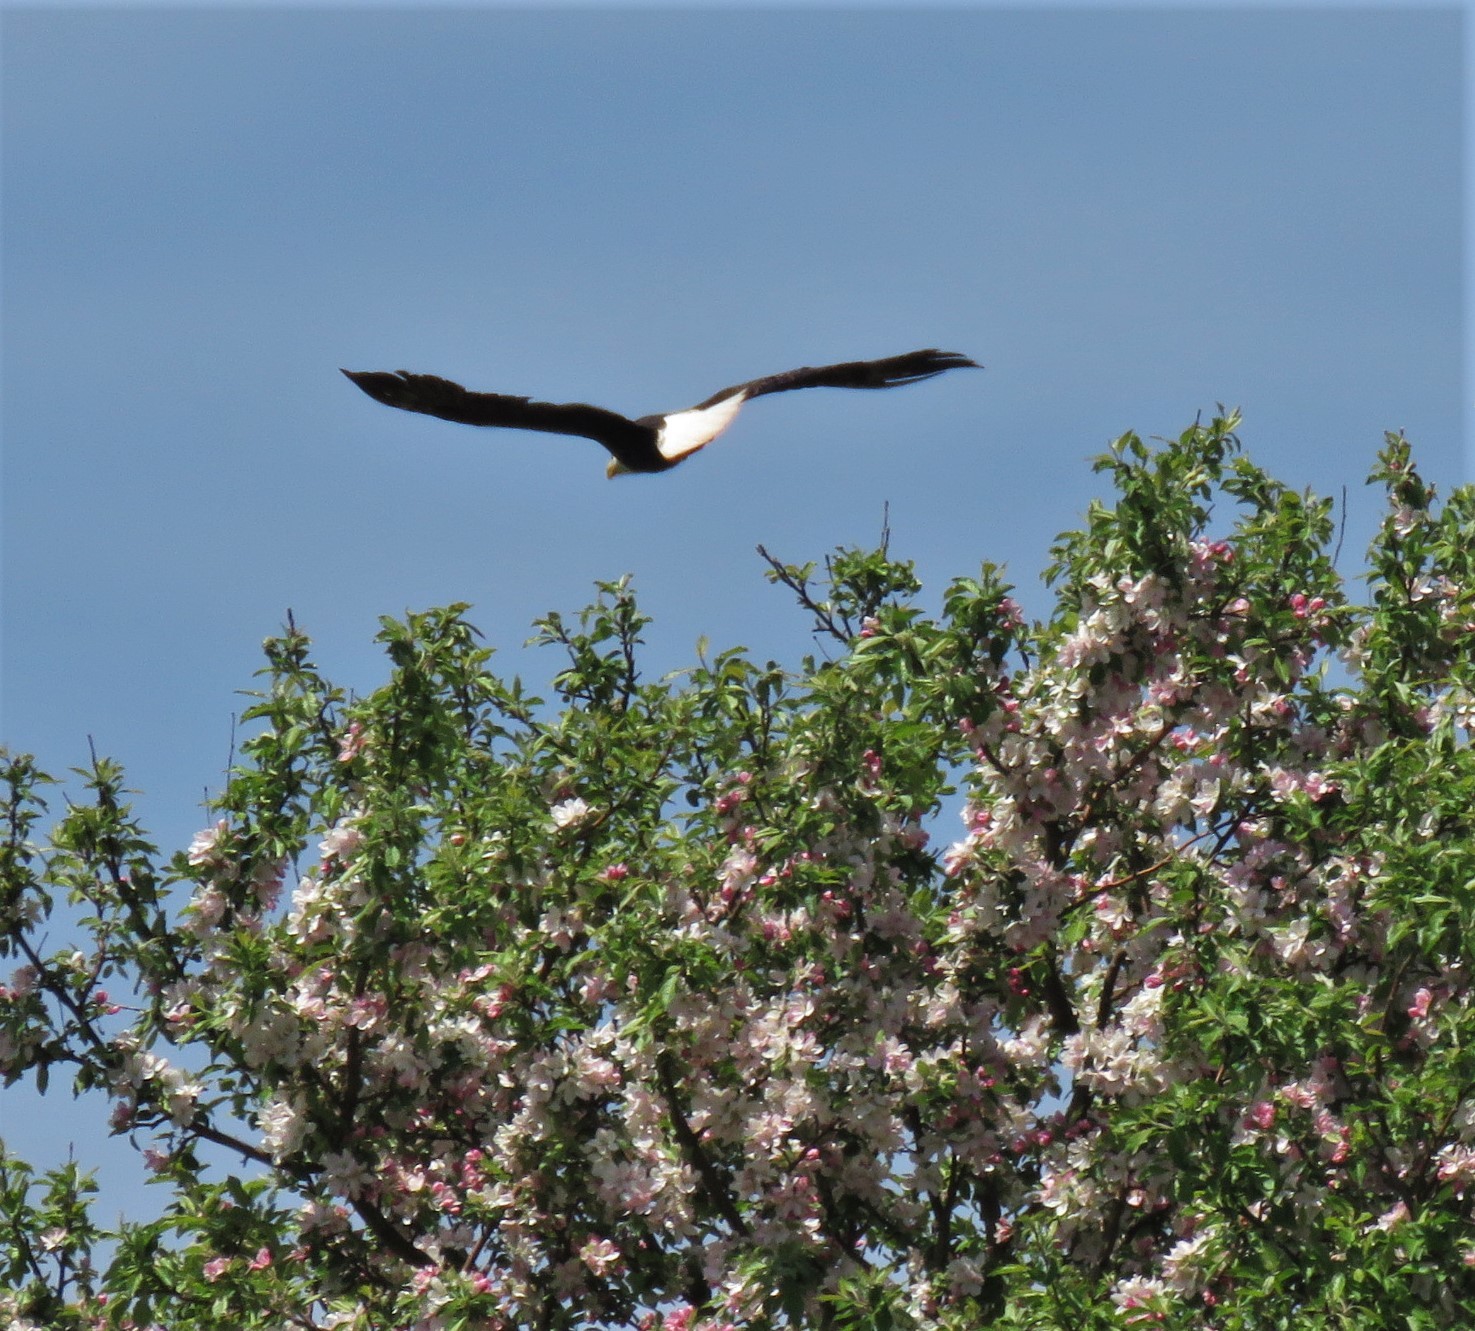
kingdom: Animalia
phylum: Chordata
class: Aves
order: Accipitriformes
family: Accipitridae
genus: Haliaeetus
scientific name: Haliaeetus leucocephalus
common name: Bald eagle
